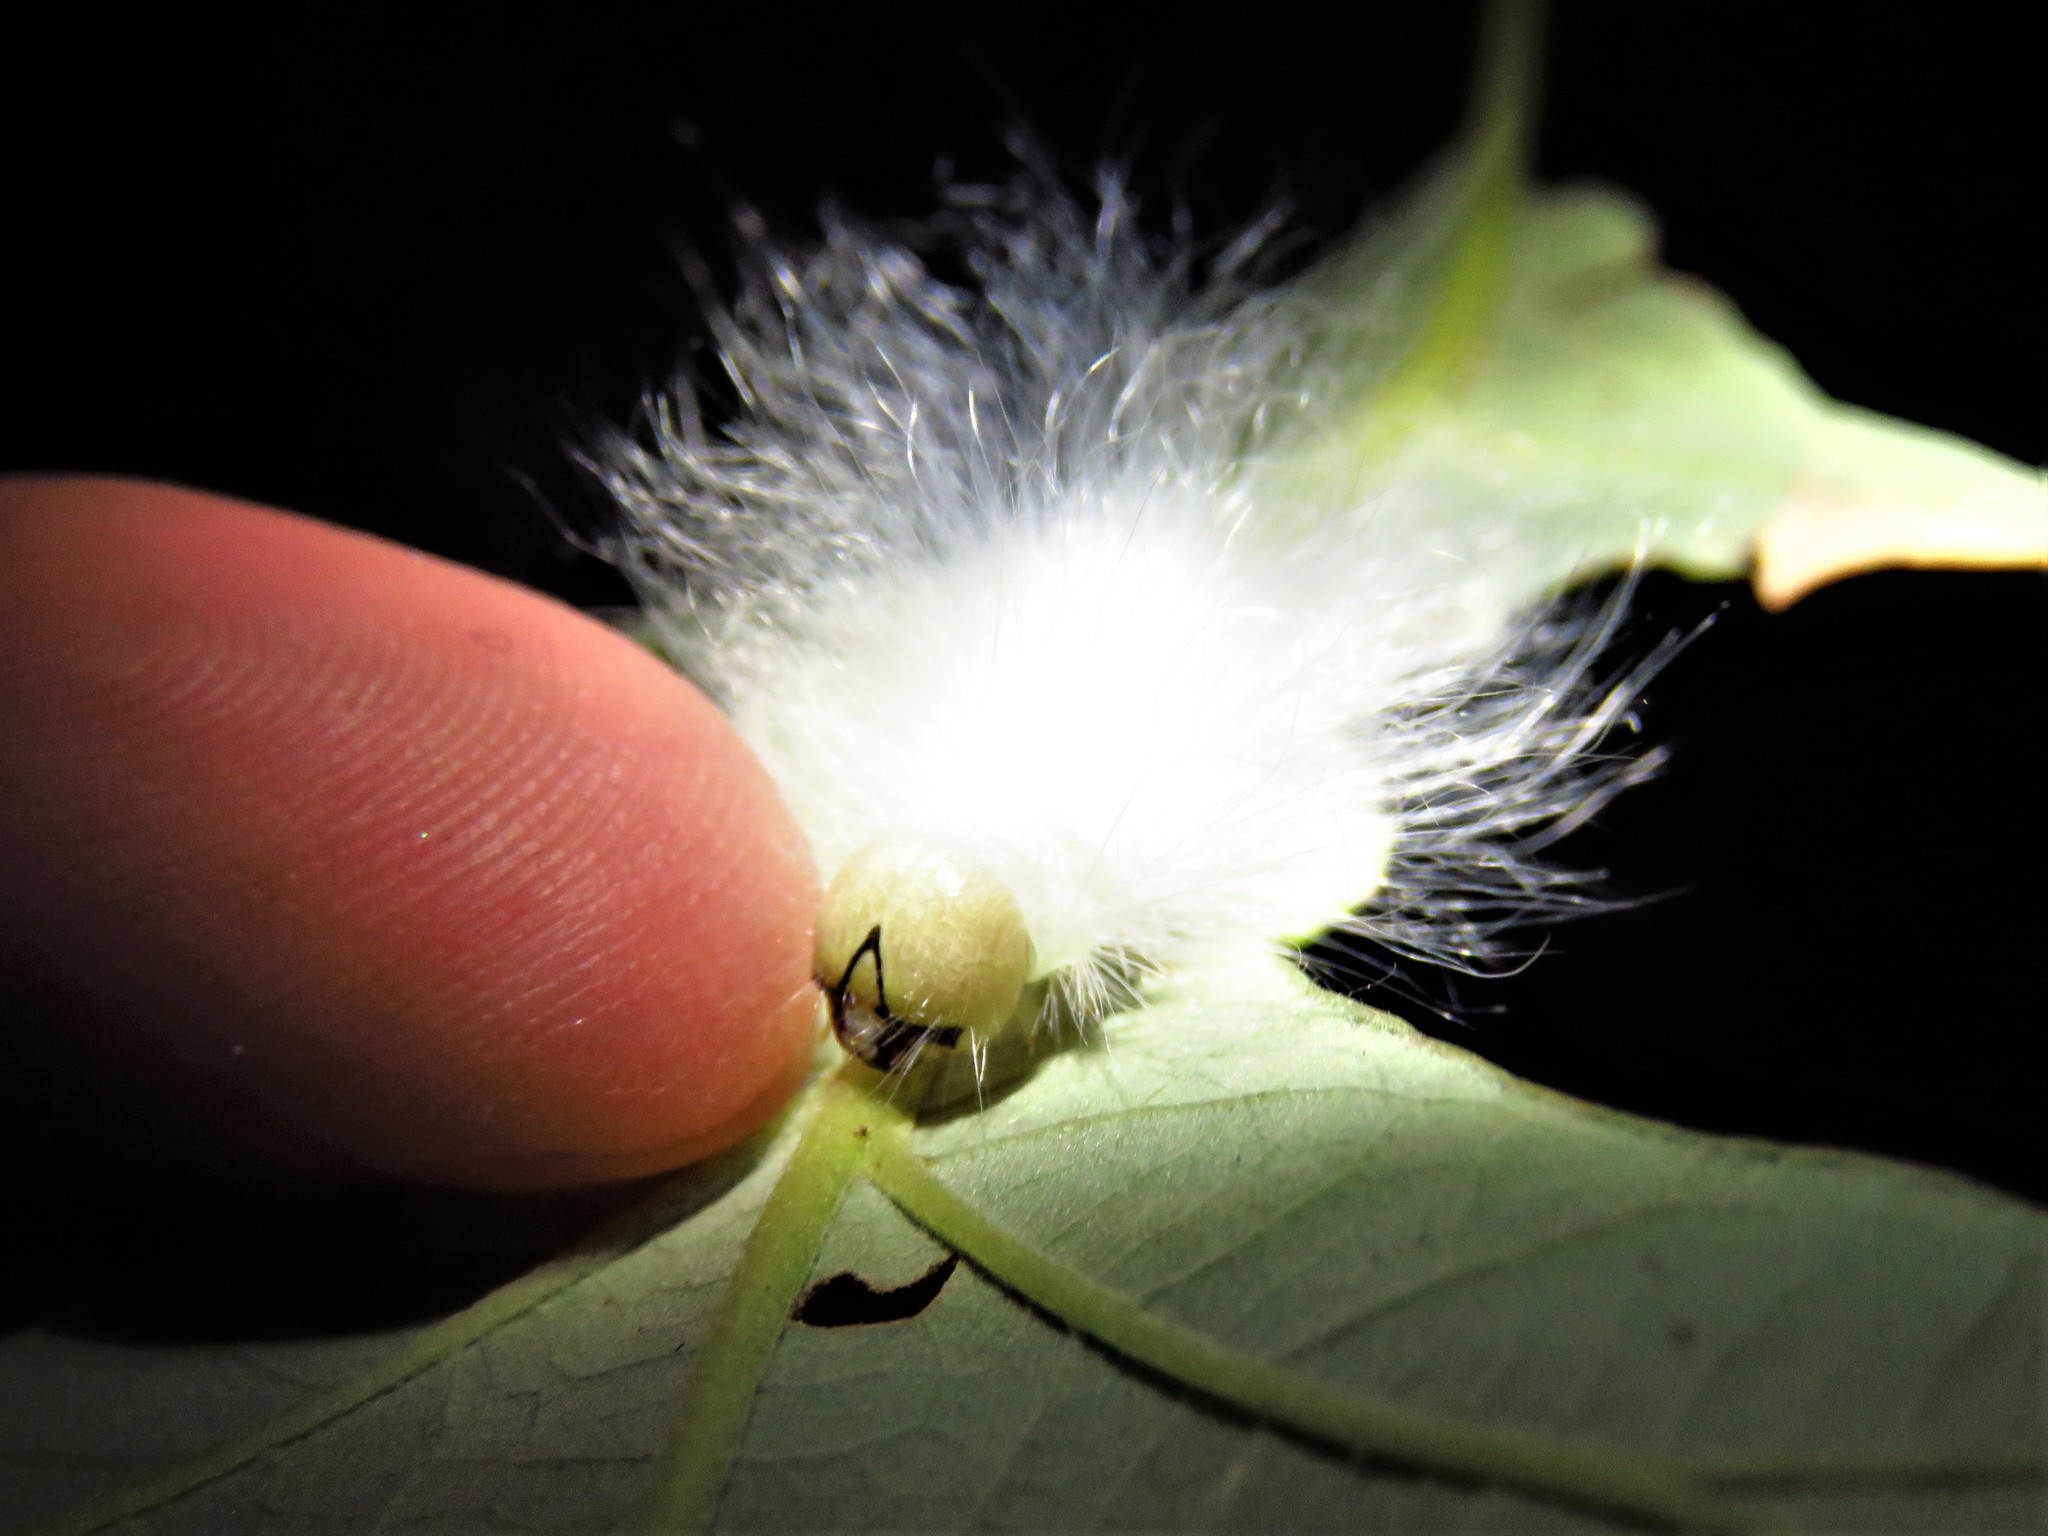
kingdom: Animalia
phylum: Arthropoda
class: Insecta
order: Lepidoptera
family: Noctuidae
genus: Charadra
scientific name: Charadra deridens
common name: Marbled tuffet
